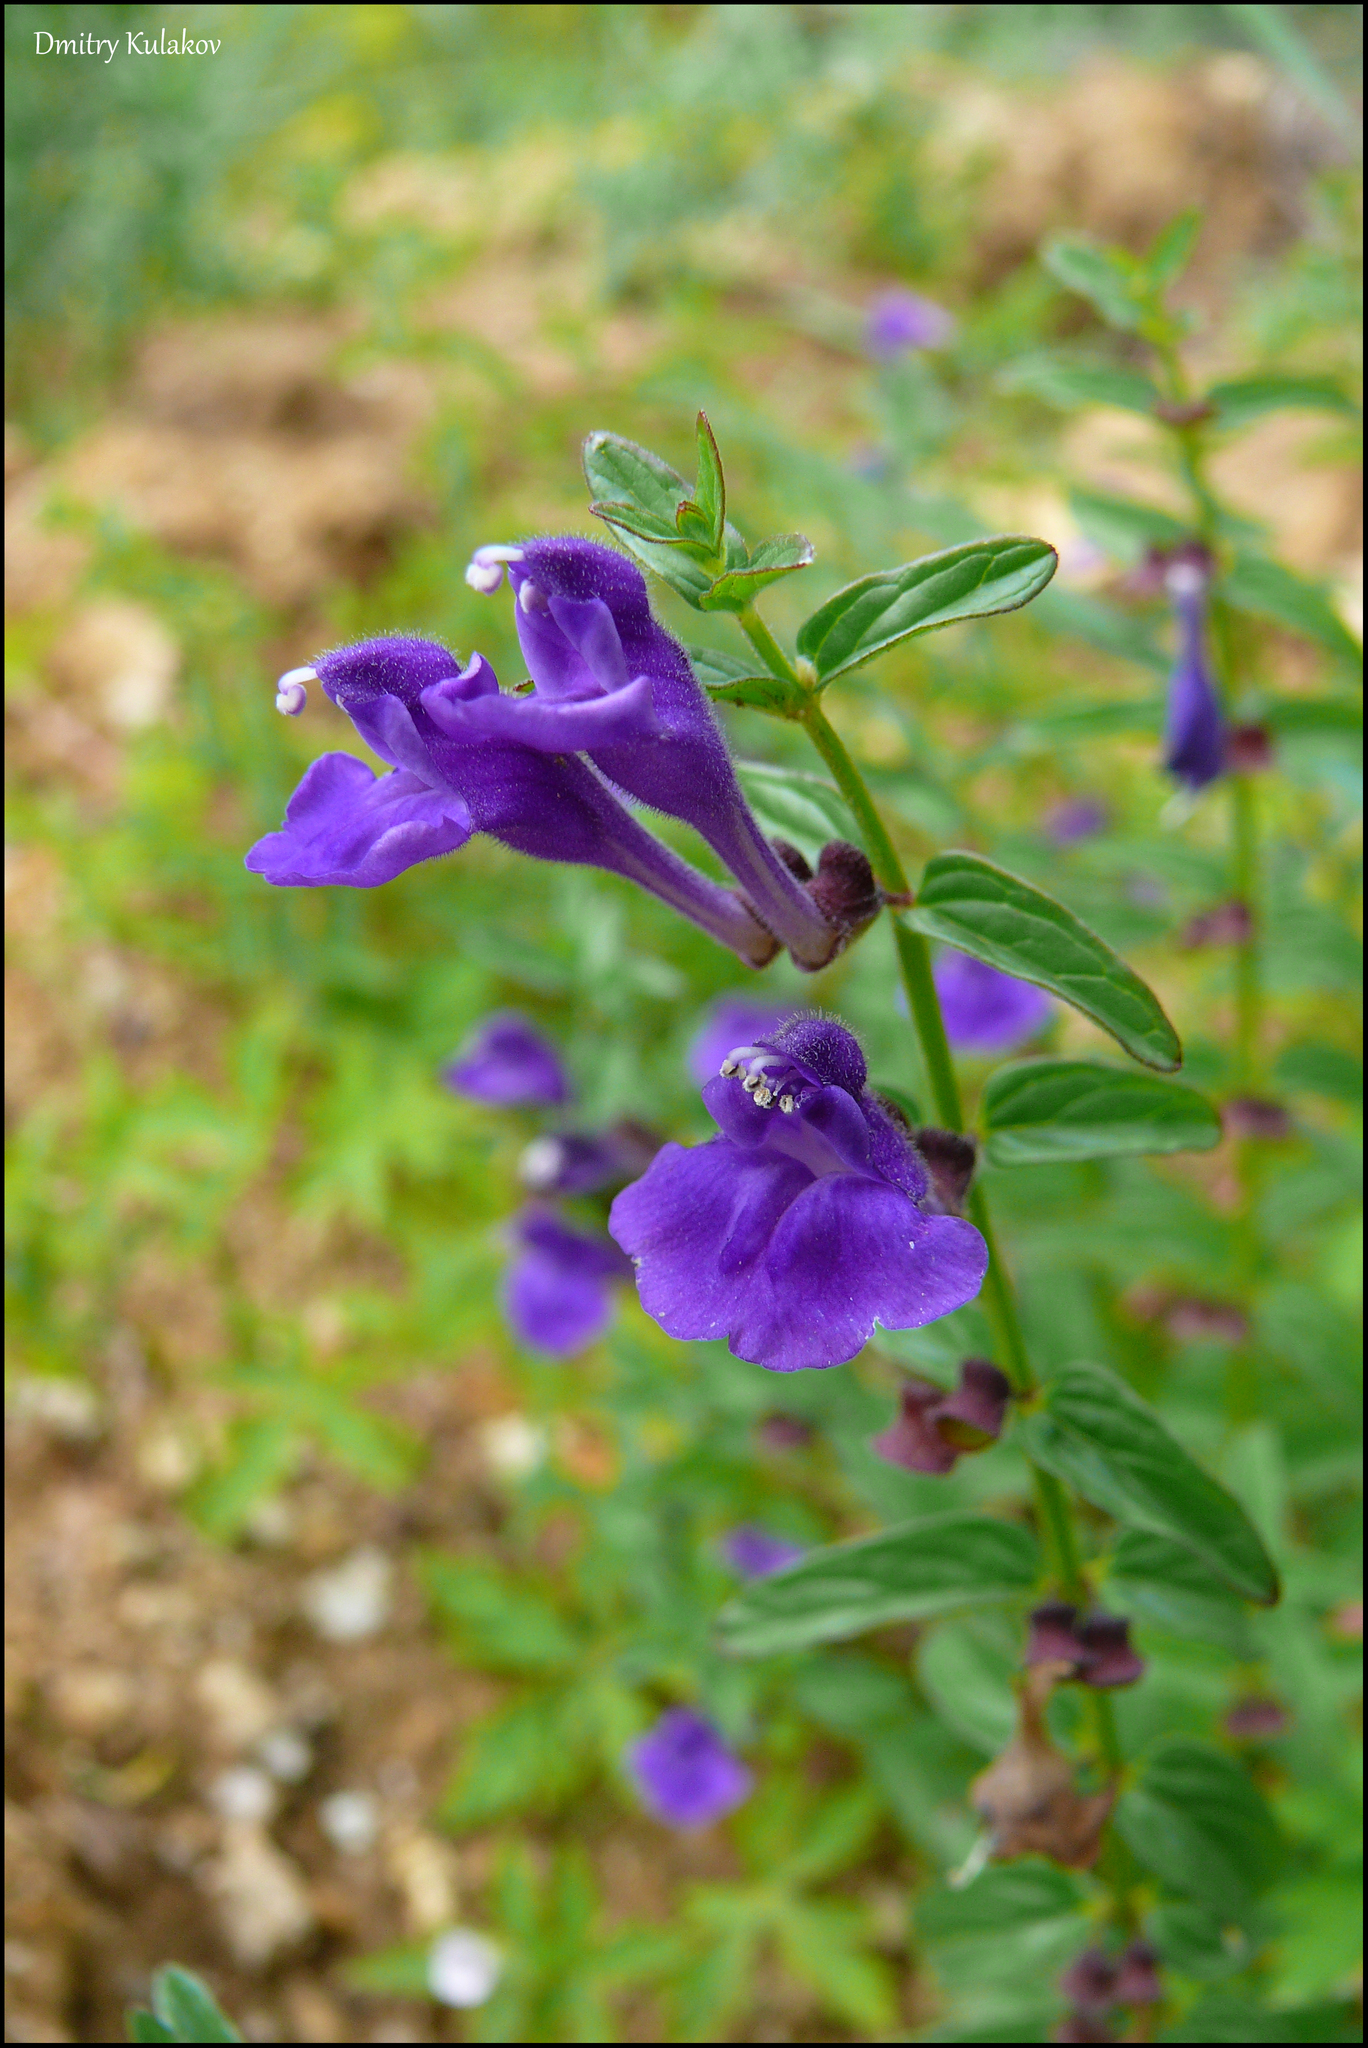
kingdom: Plantae
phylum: Tracheophyta
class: Magnoliopsida
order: Lamiales
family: Lamiaceae
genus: Scutellaria
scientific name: Scutellaria scordiifolia
